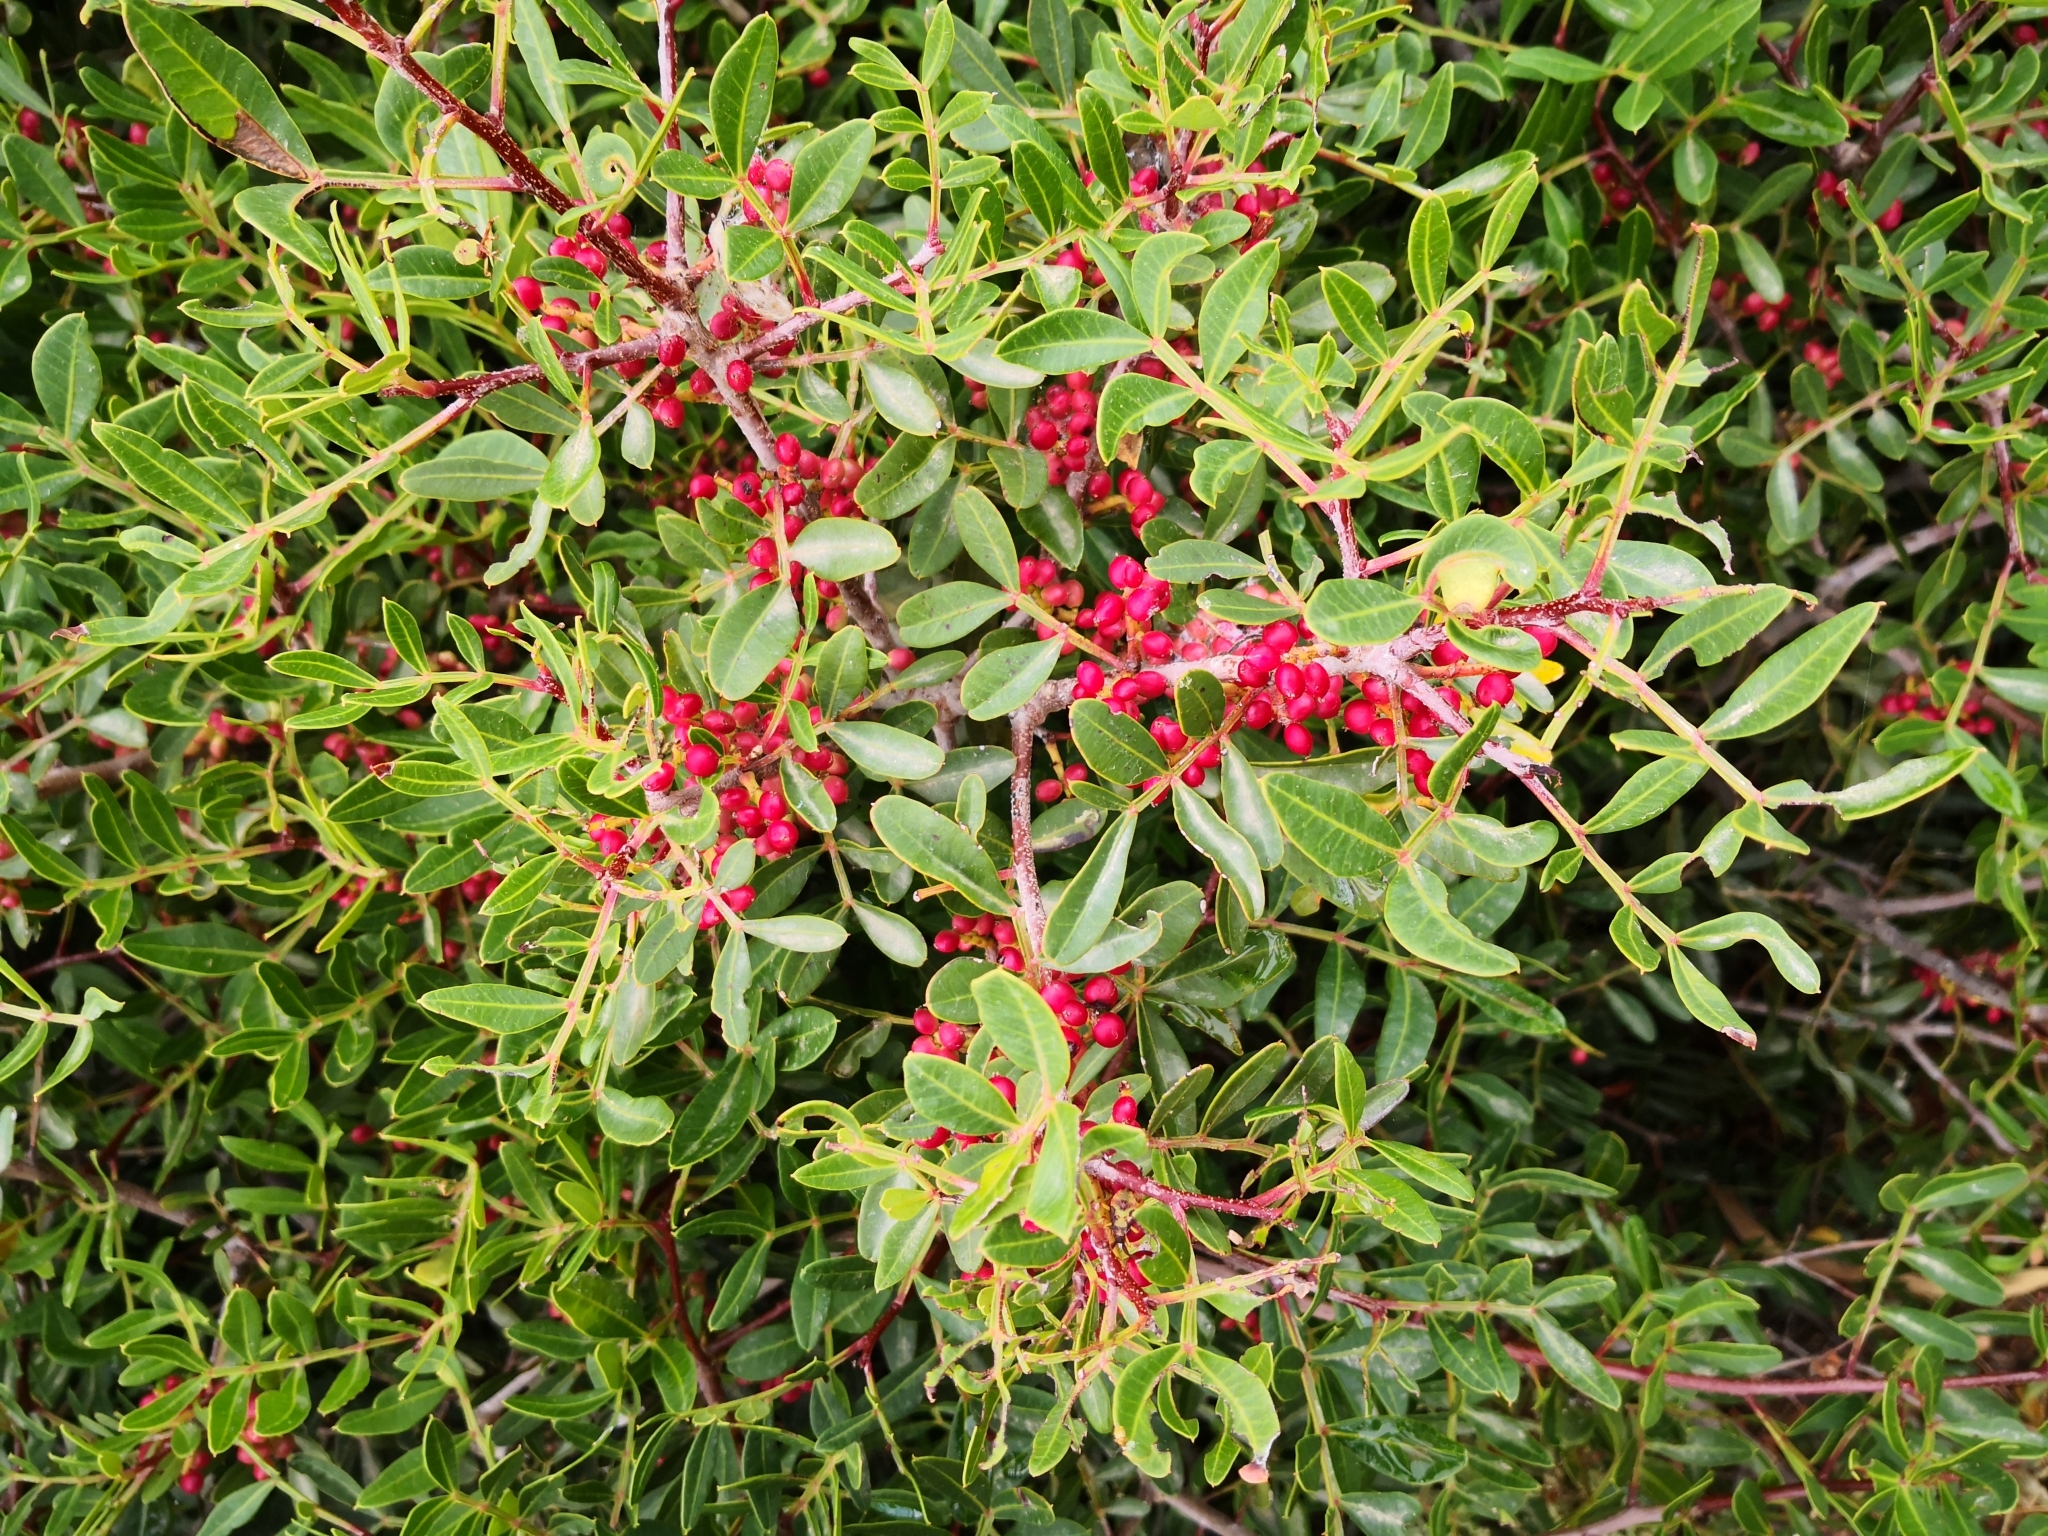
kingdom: Plantae
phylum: Tracheophyta
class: Magnoliopsida
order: Sapindales
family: Anacardiaceae
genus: Pistacia
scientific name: Pistacia lentiscus
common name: Lentisk
